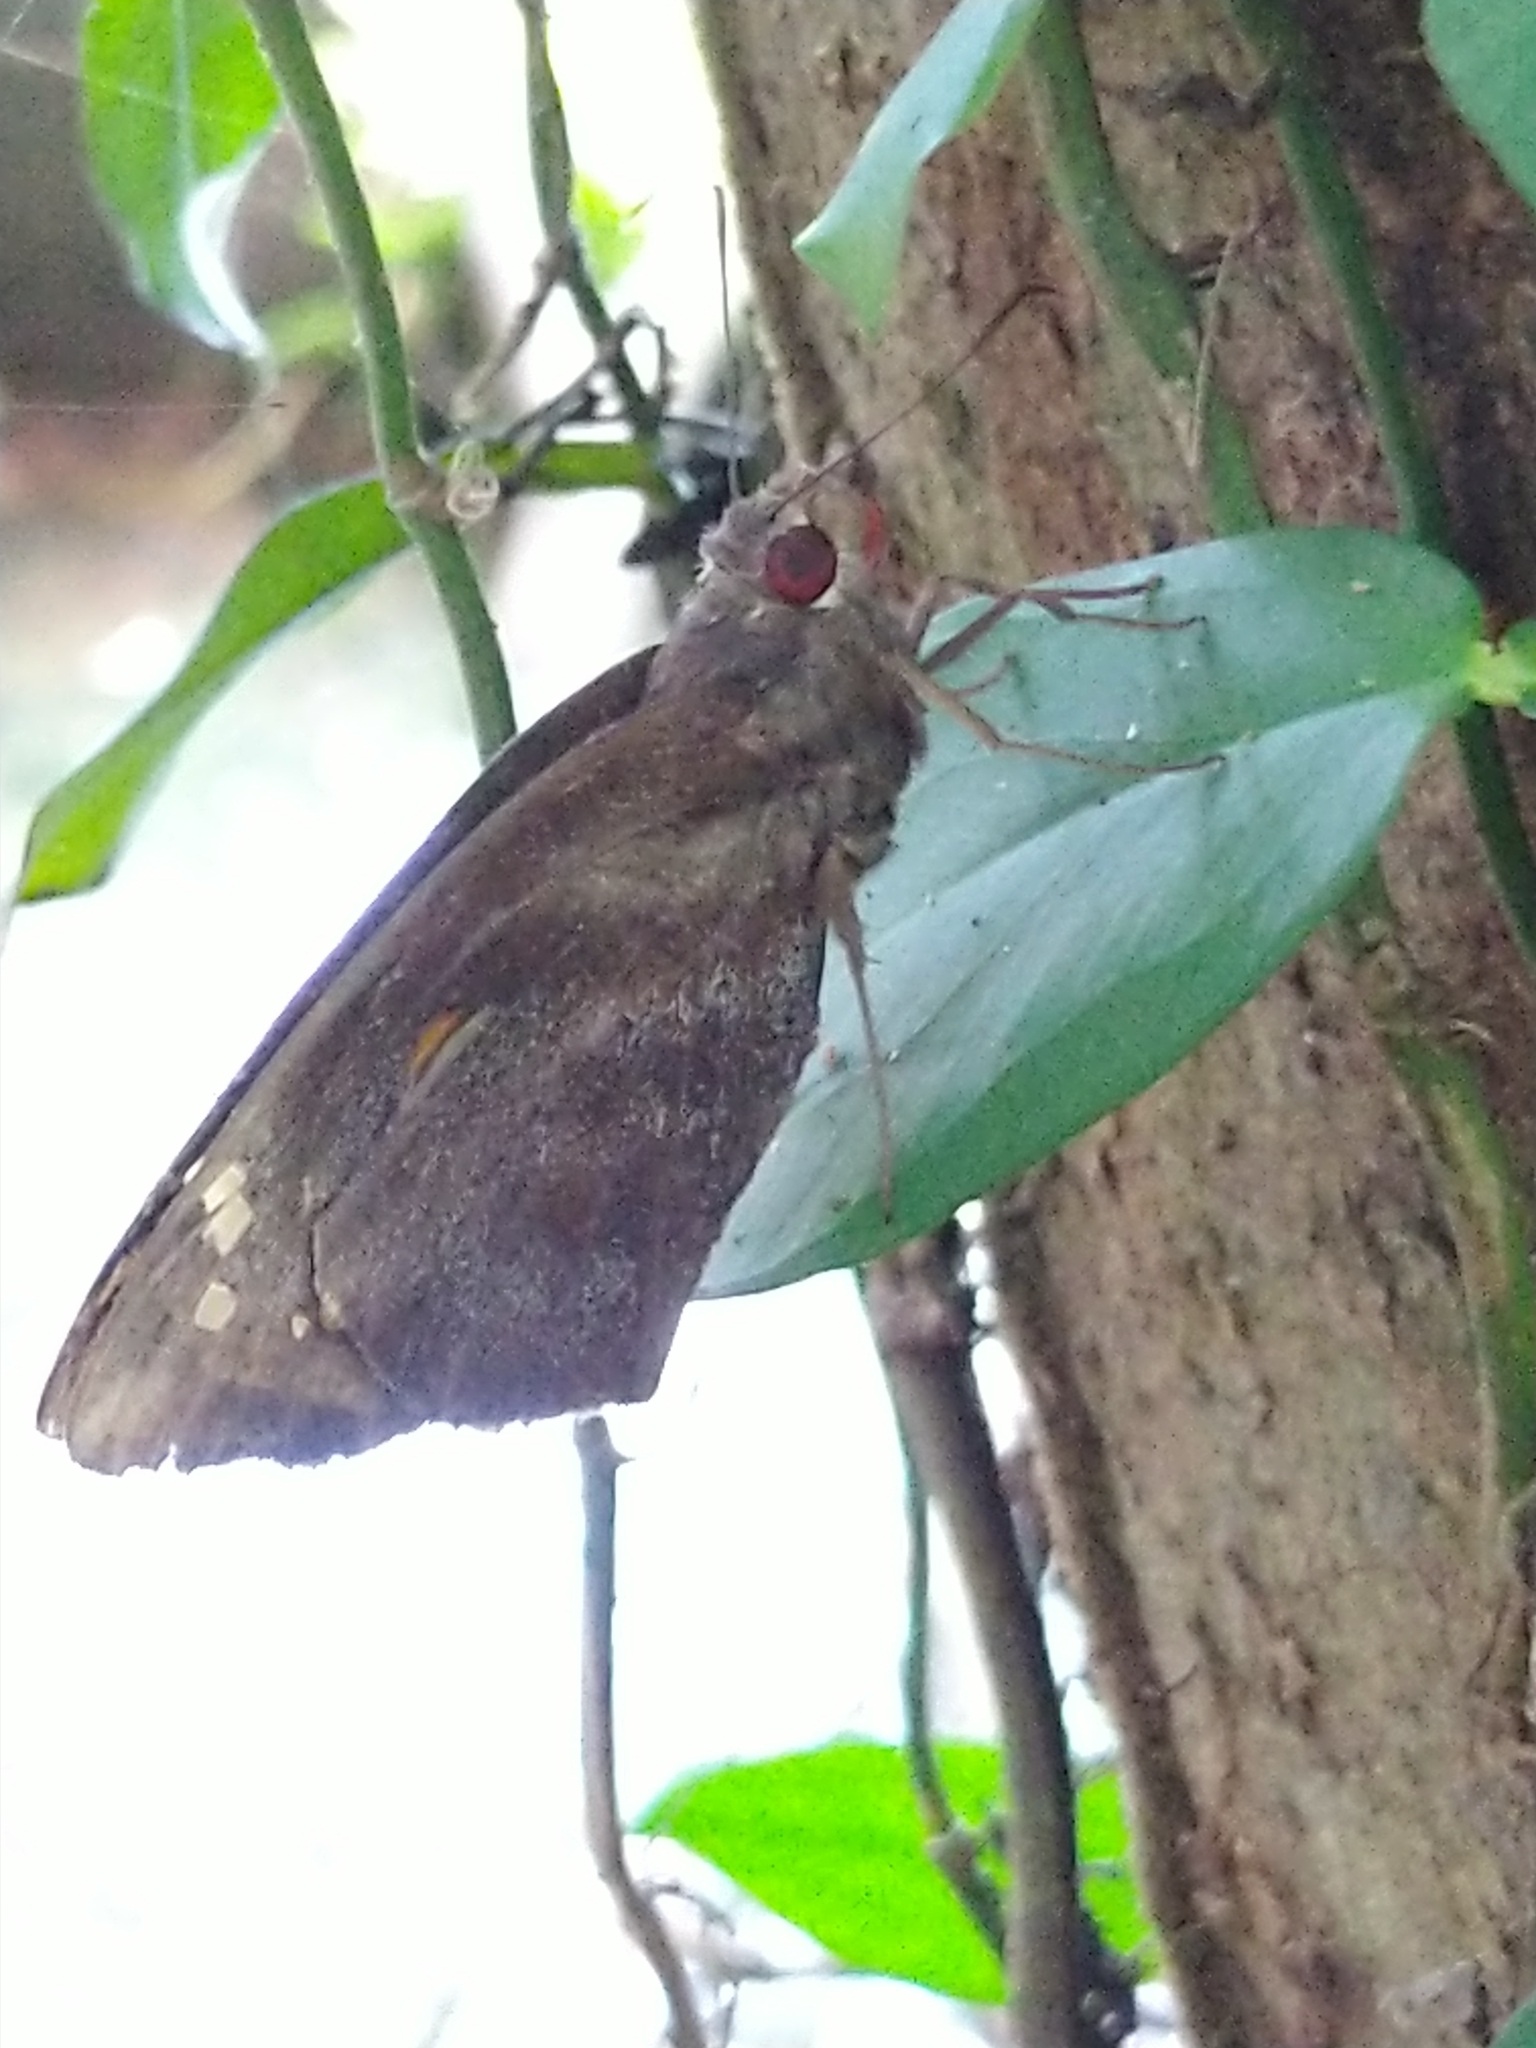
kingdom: Animalia
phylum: Arthropoda
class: Insecta
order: Lepidoptera
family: Hesperiidae
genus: Gangara
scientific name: Gangara thyrsis
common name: Giant redeye
